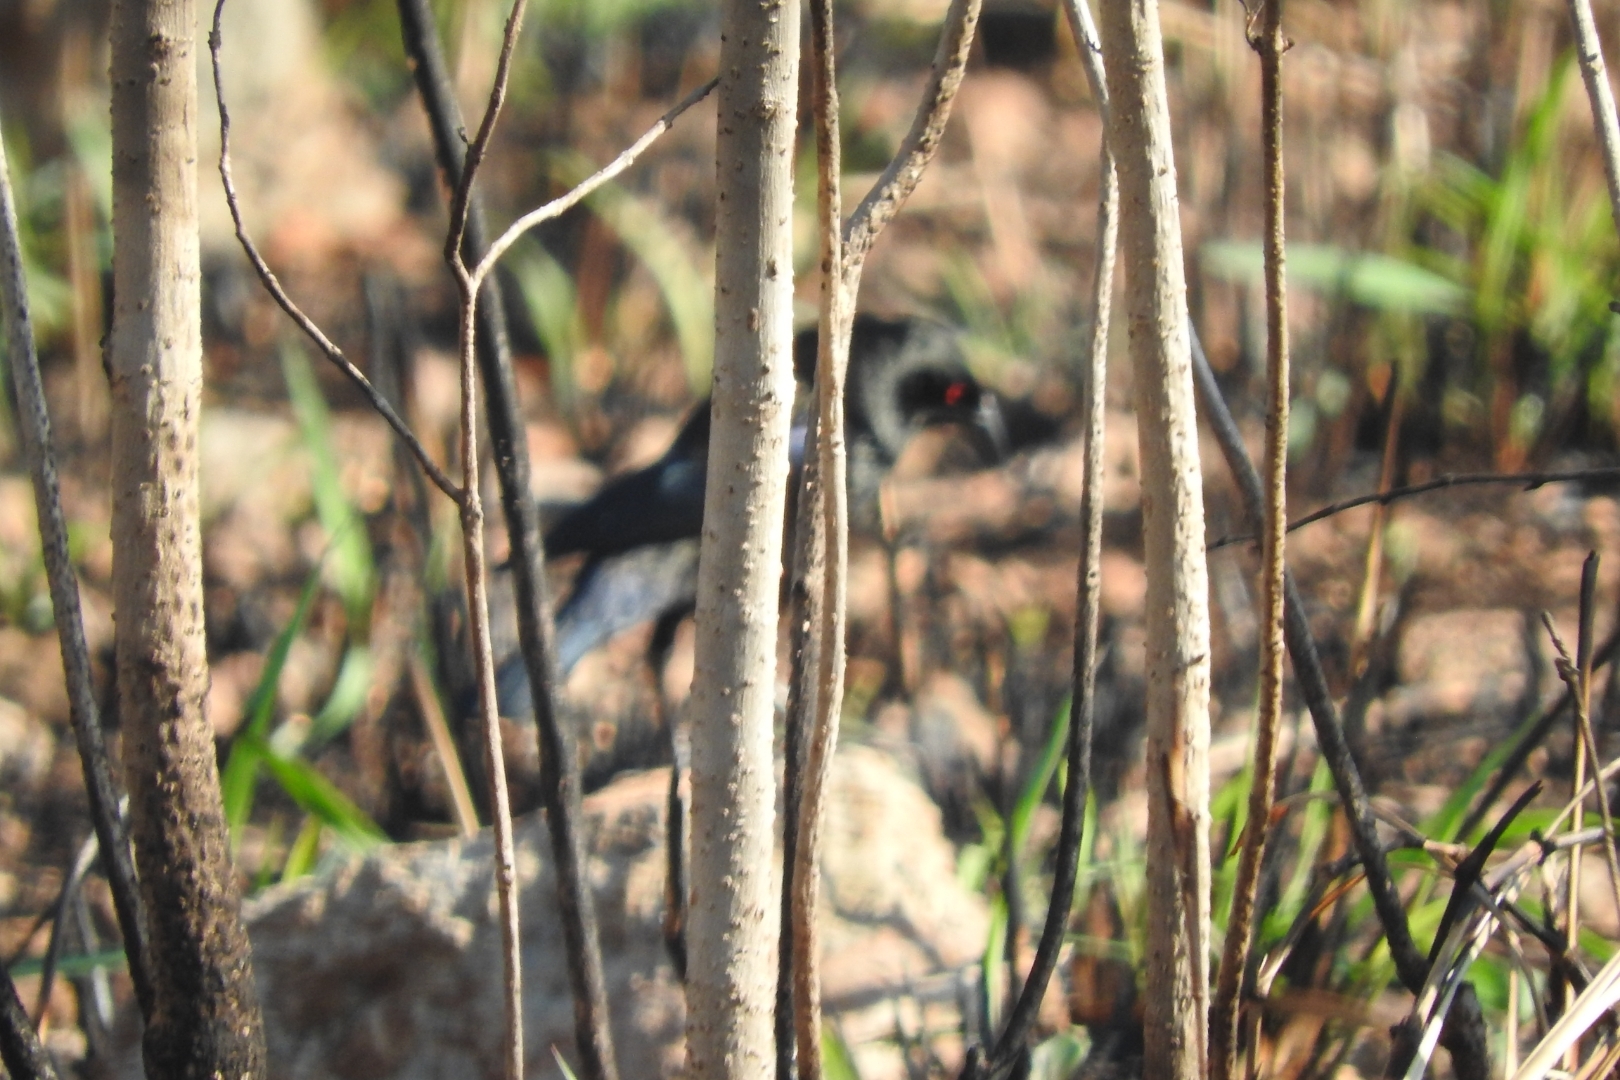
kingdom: Animalia
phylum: Chordata
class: Aves
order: Passeriformes
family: Icteridae
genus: Molothrus
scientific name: Molothrus aeneus
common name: Bronzed cowbird
